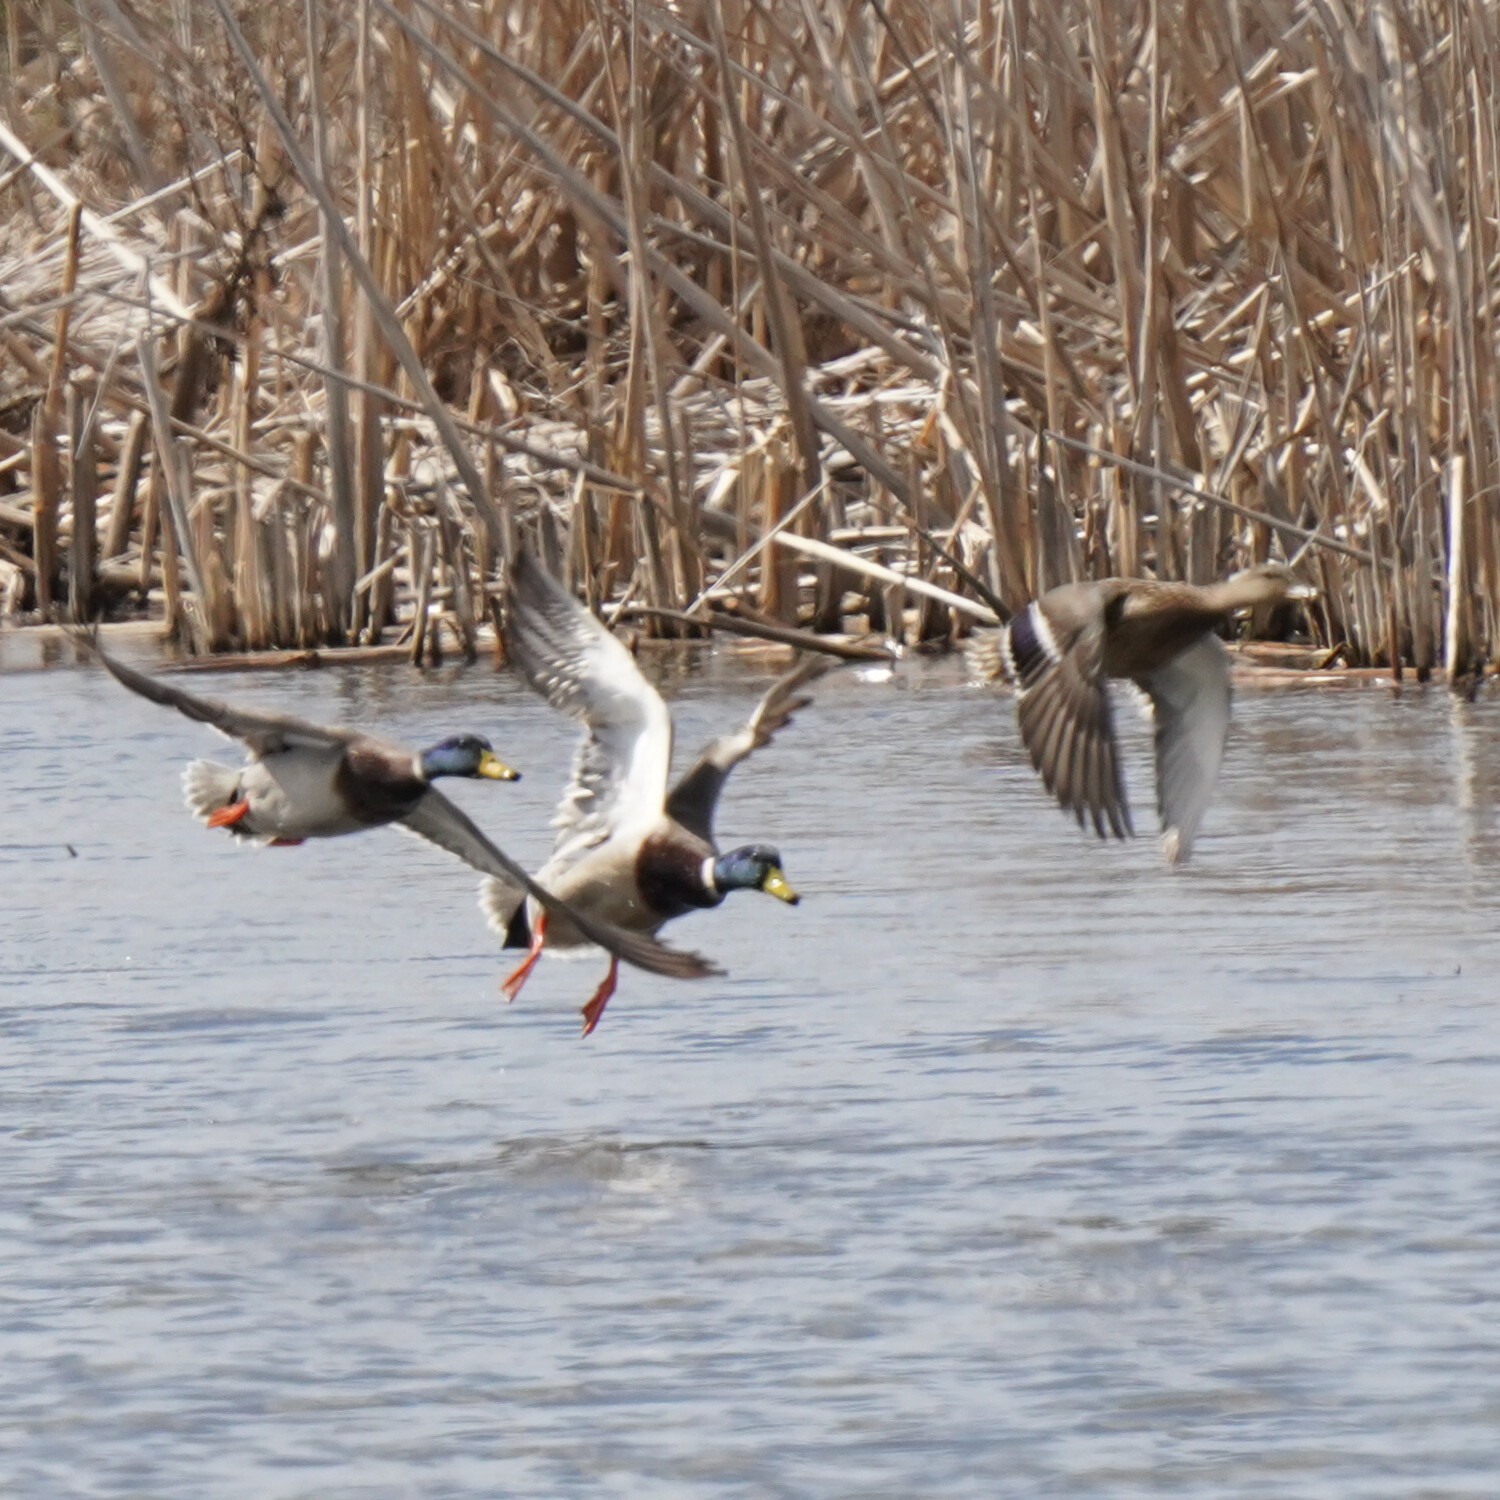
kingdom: Animalia
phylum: Chordata
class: Aves
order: Anseriformes
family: Anatidae
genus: Anas
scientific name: Anas platyrhynchos
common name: Mallard
